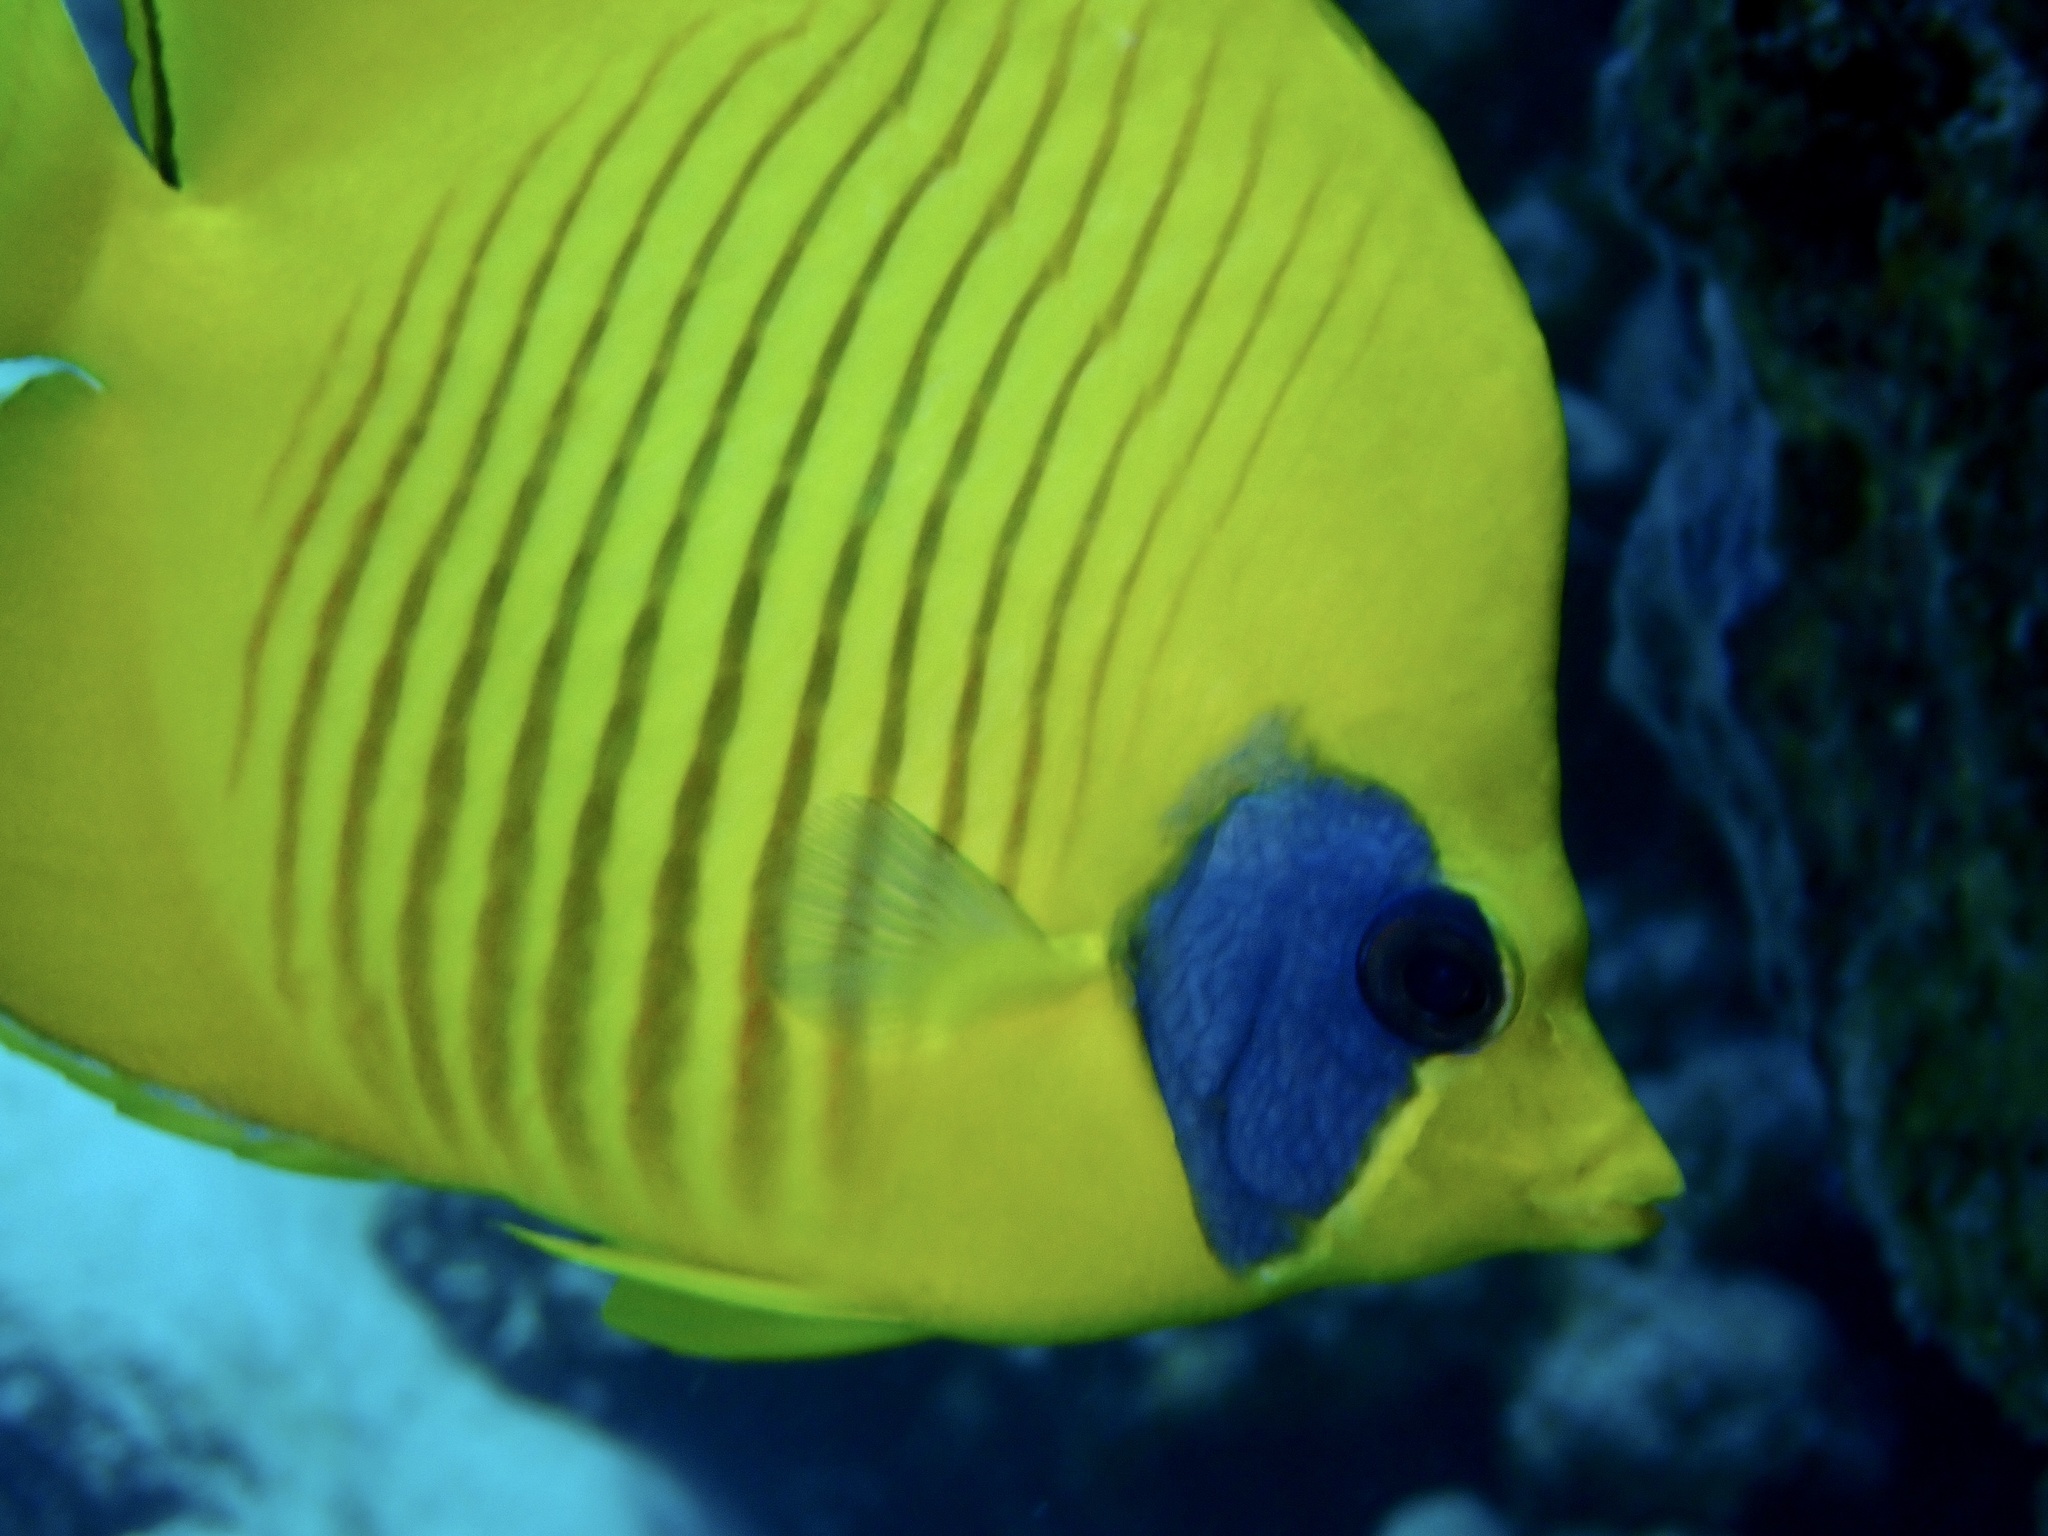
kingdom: Animalia
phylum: Chordata
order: Perciformes
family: Chaetodontidae
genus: Chaetodon
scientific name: Chaetodon semilarvatus
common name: Golden butterflyfish
